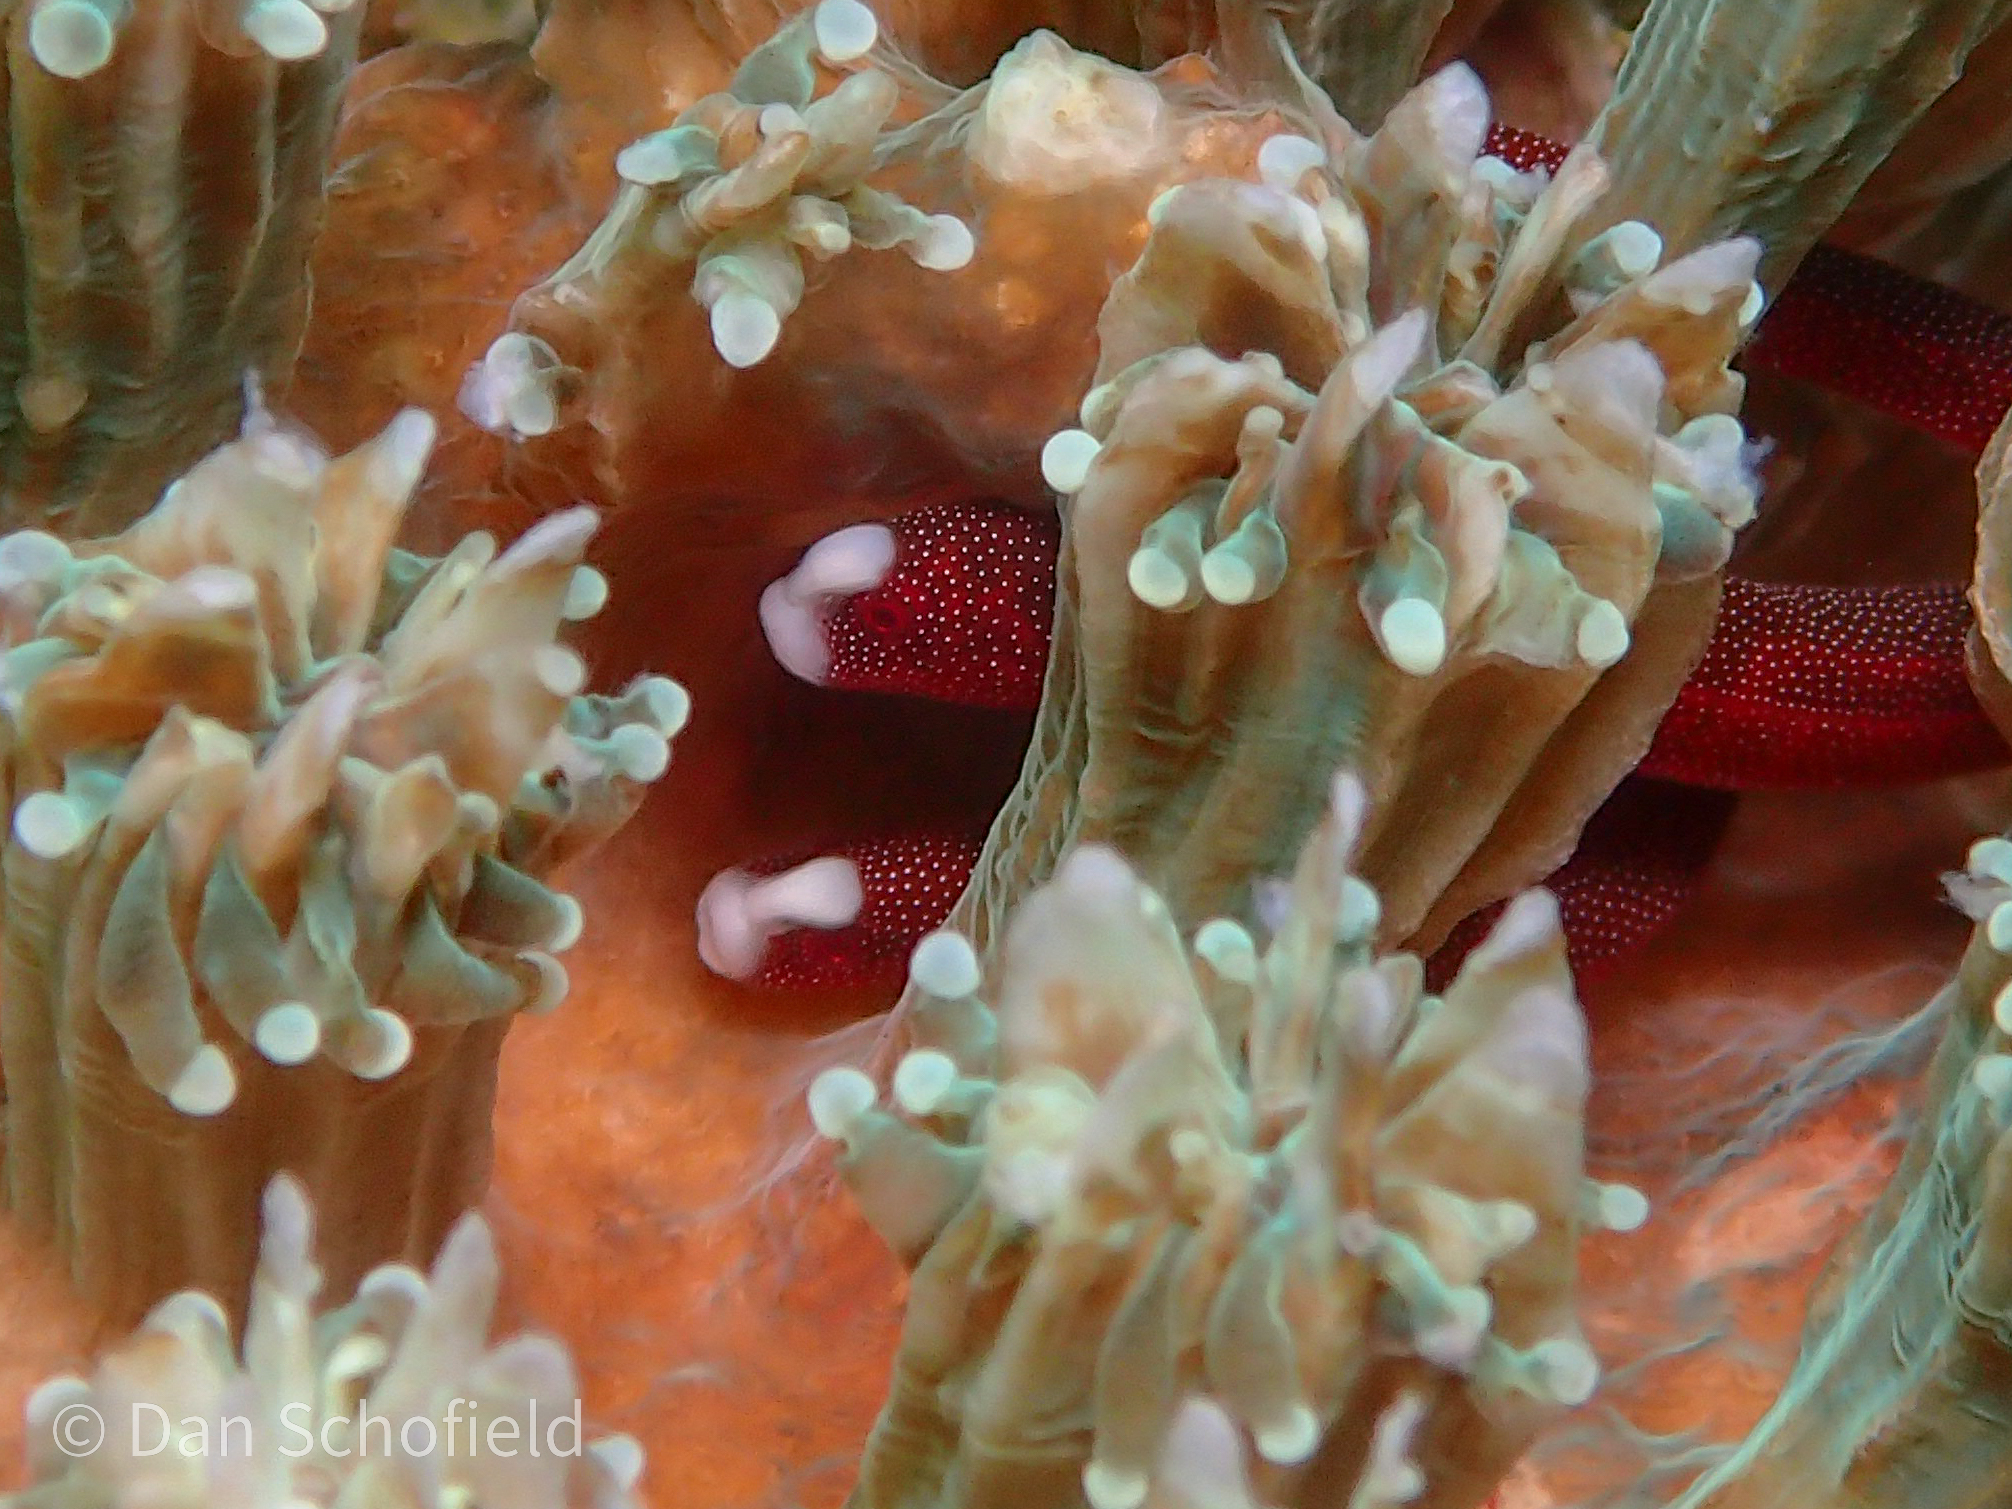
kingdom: Animalia
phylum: Chordata
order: Syngnathiformes
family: Syngnathidae
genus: Bulbonaricus
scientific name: Bulbonaricus brauni
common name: Braun’s pughead pipefish
